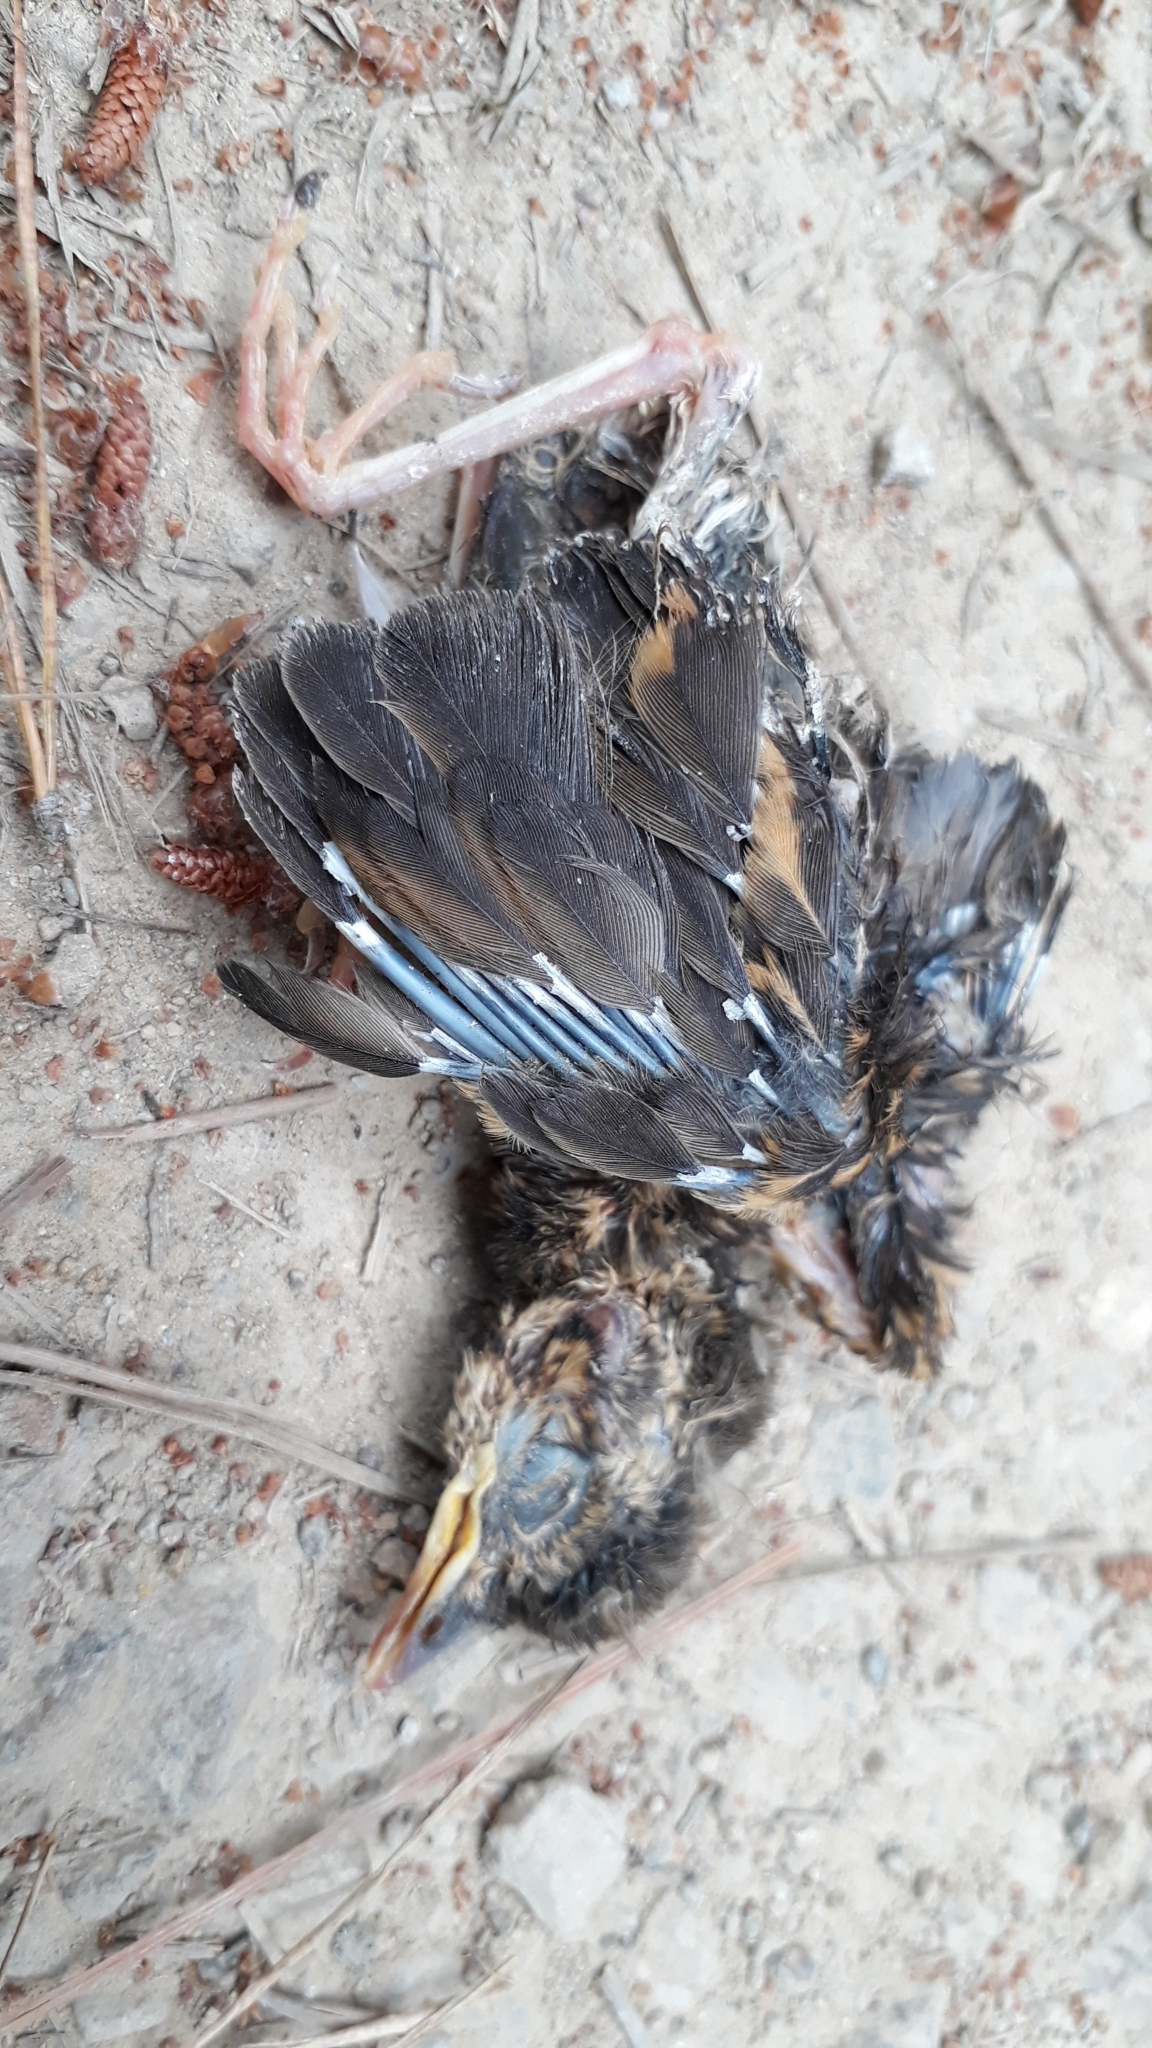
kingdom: Animalia
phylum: Chordata
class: Aves
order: Passeriformes
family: Turdidae
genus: Turdus
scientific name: Turdus merula
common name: Common blackbird
